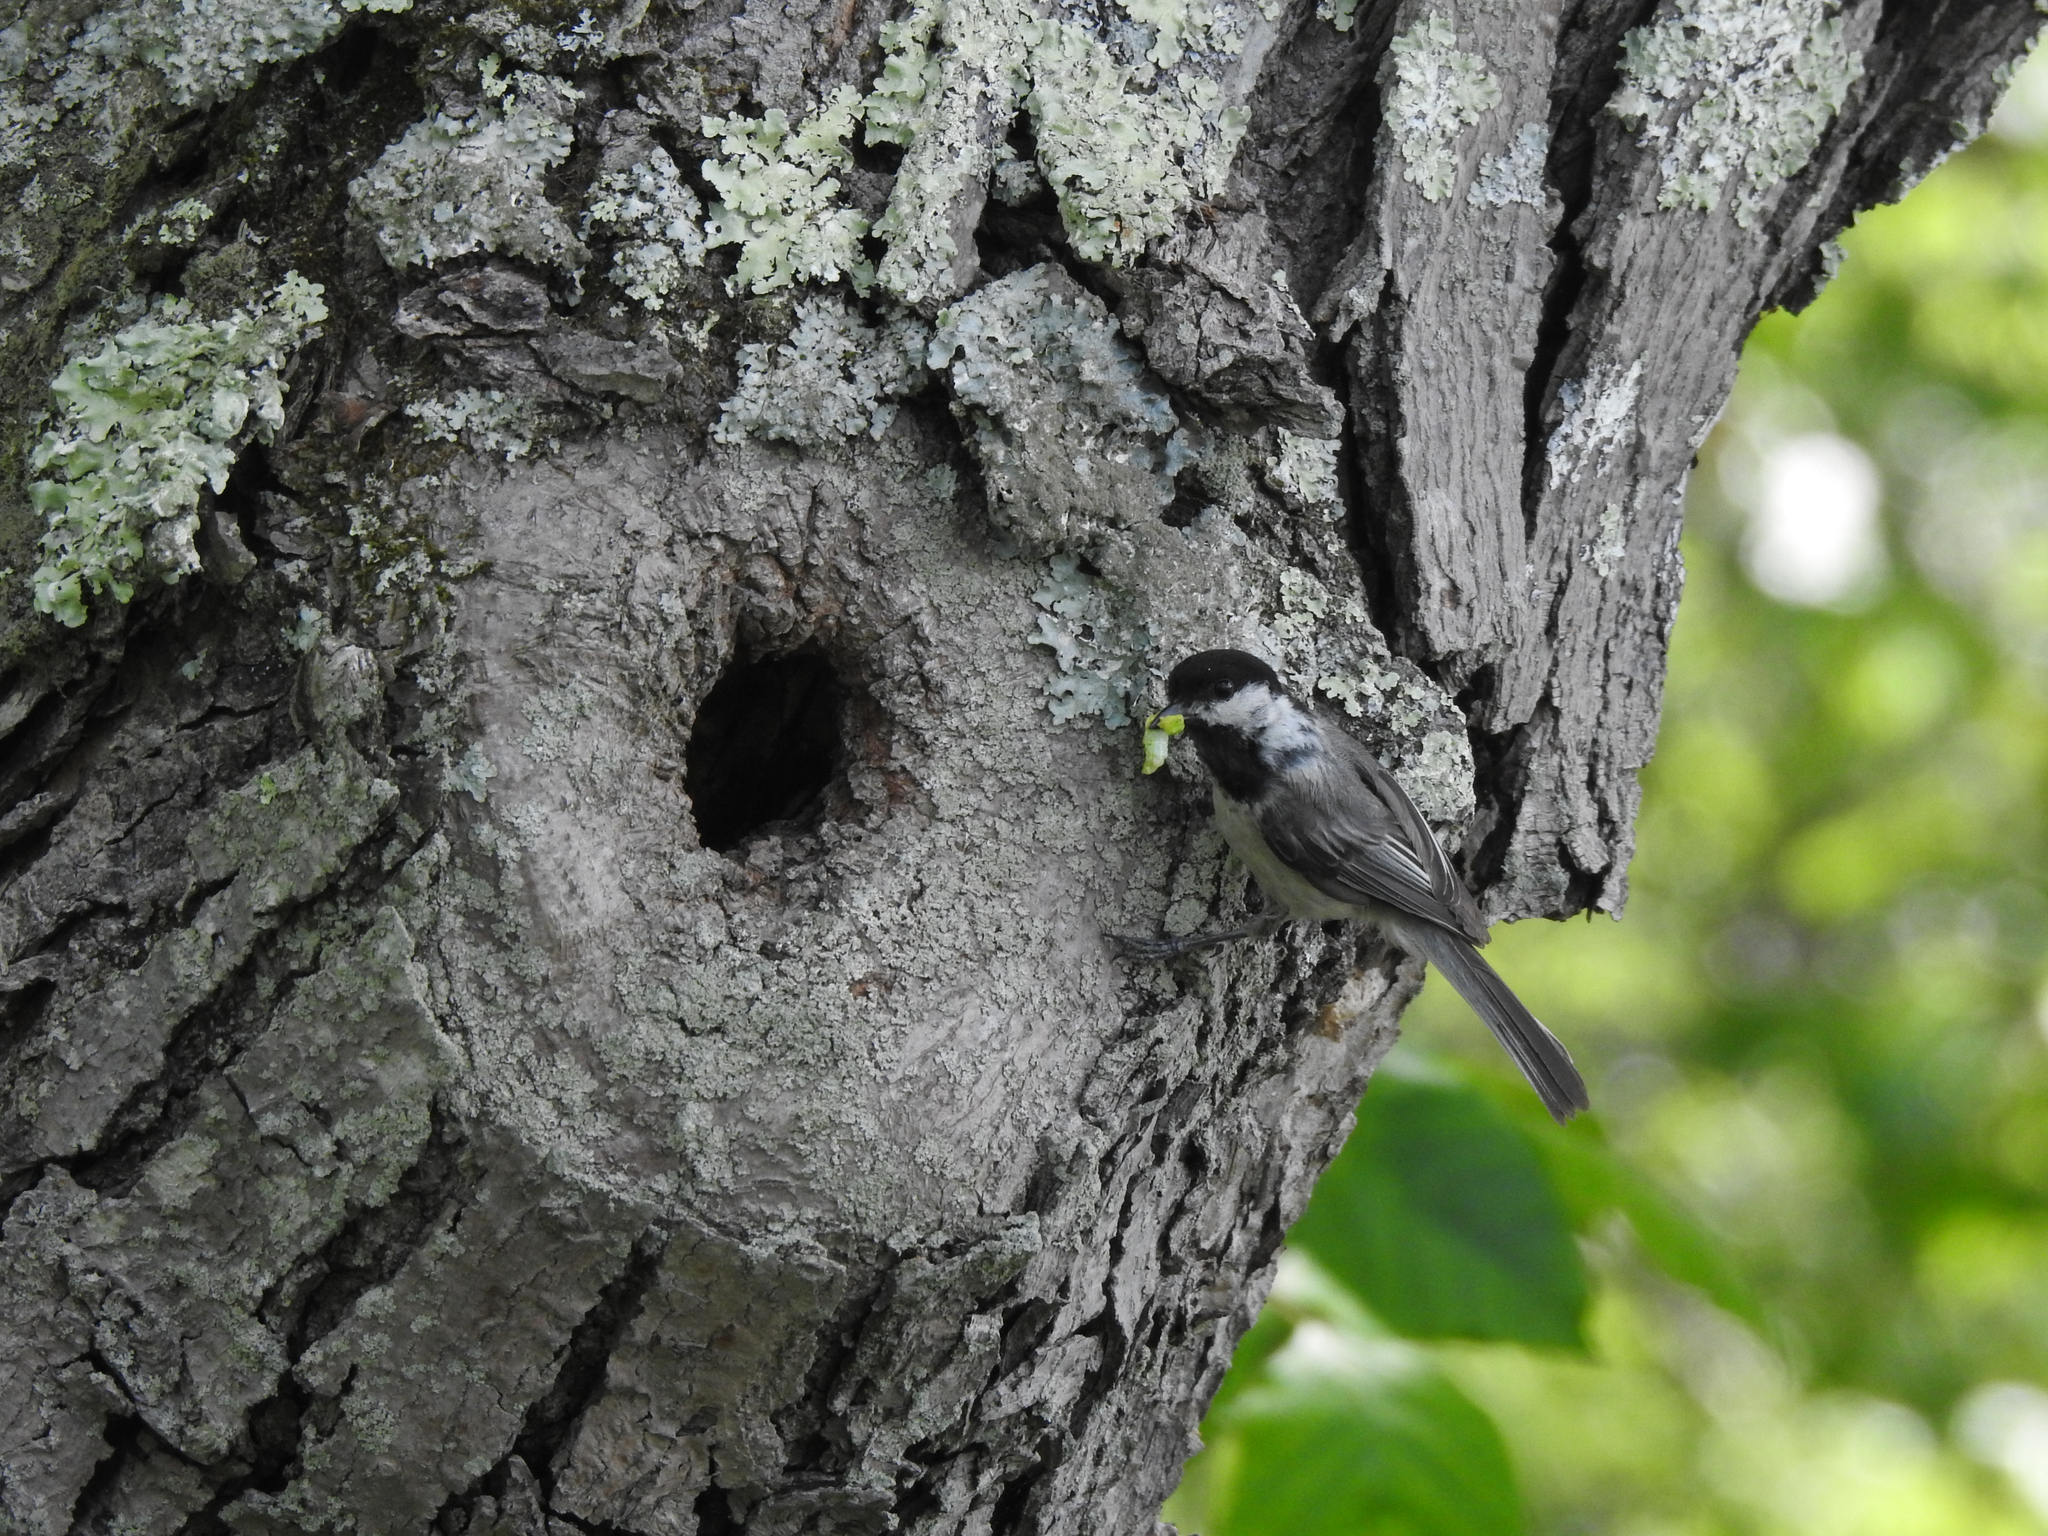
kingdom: Animalia
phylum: Chordata
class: Aves
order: Passeriformes
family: Paridae
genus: Poecile
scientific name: Poecile atricapillus
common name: Black-capped chickadee
